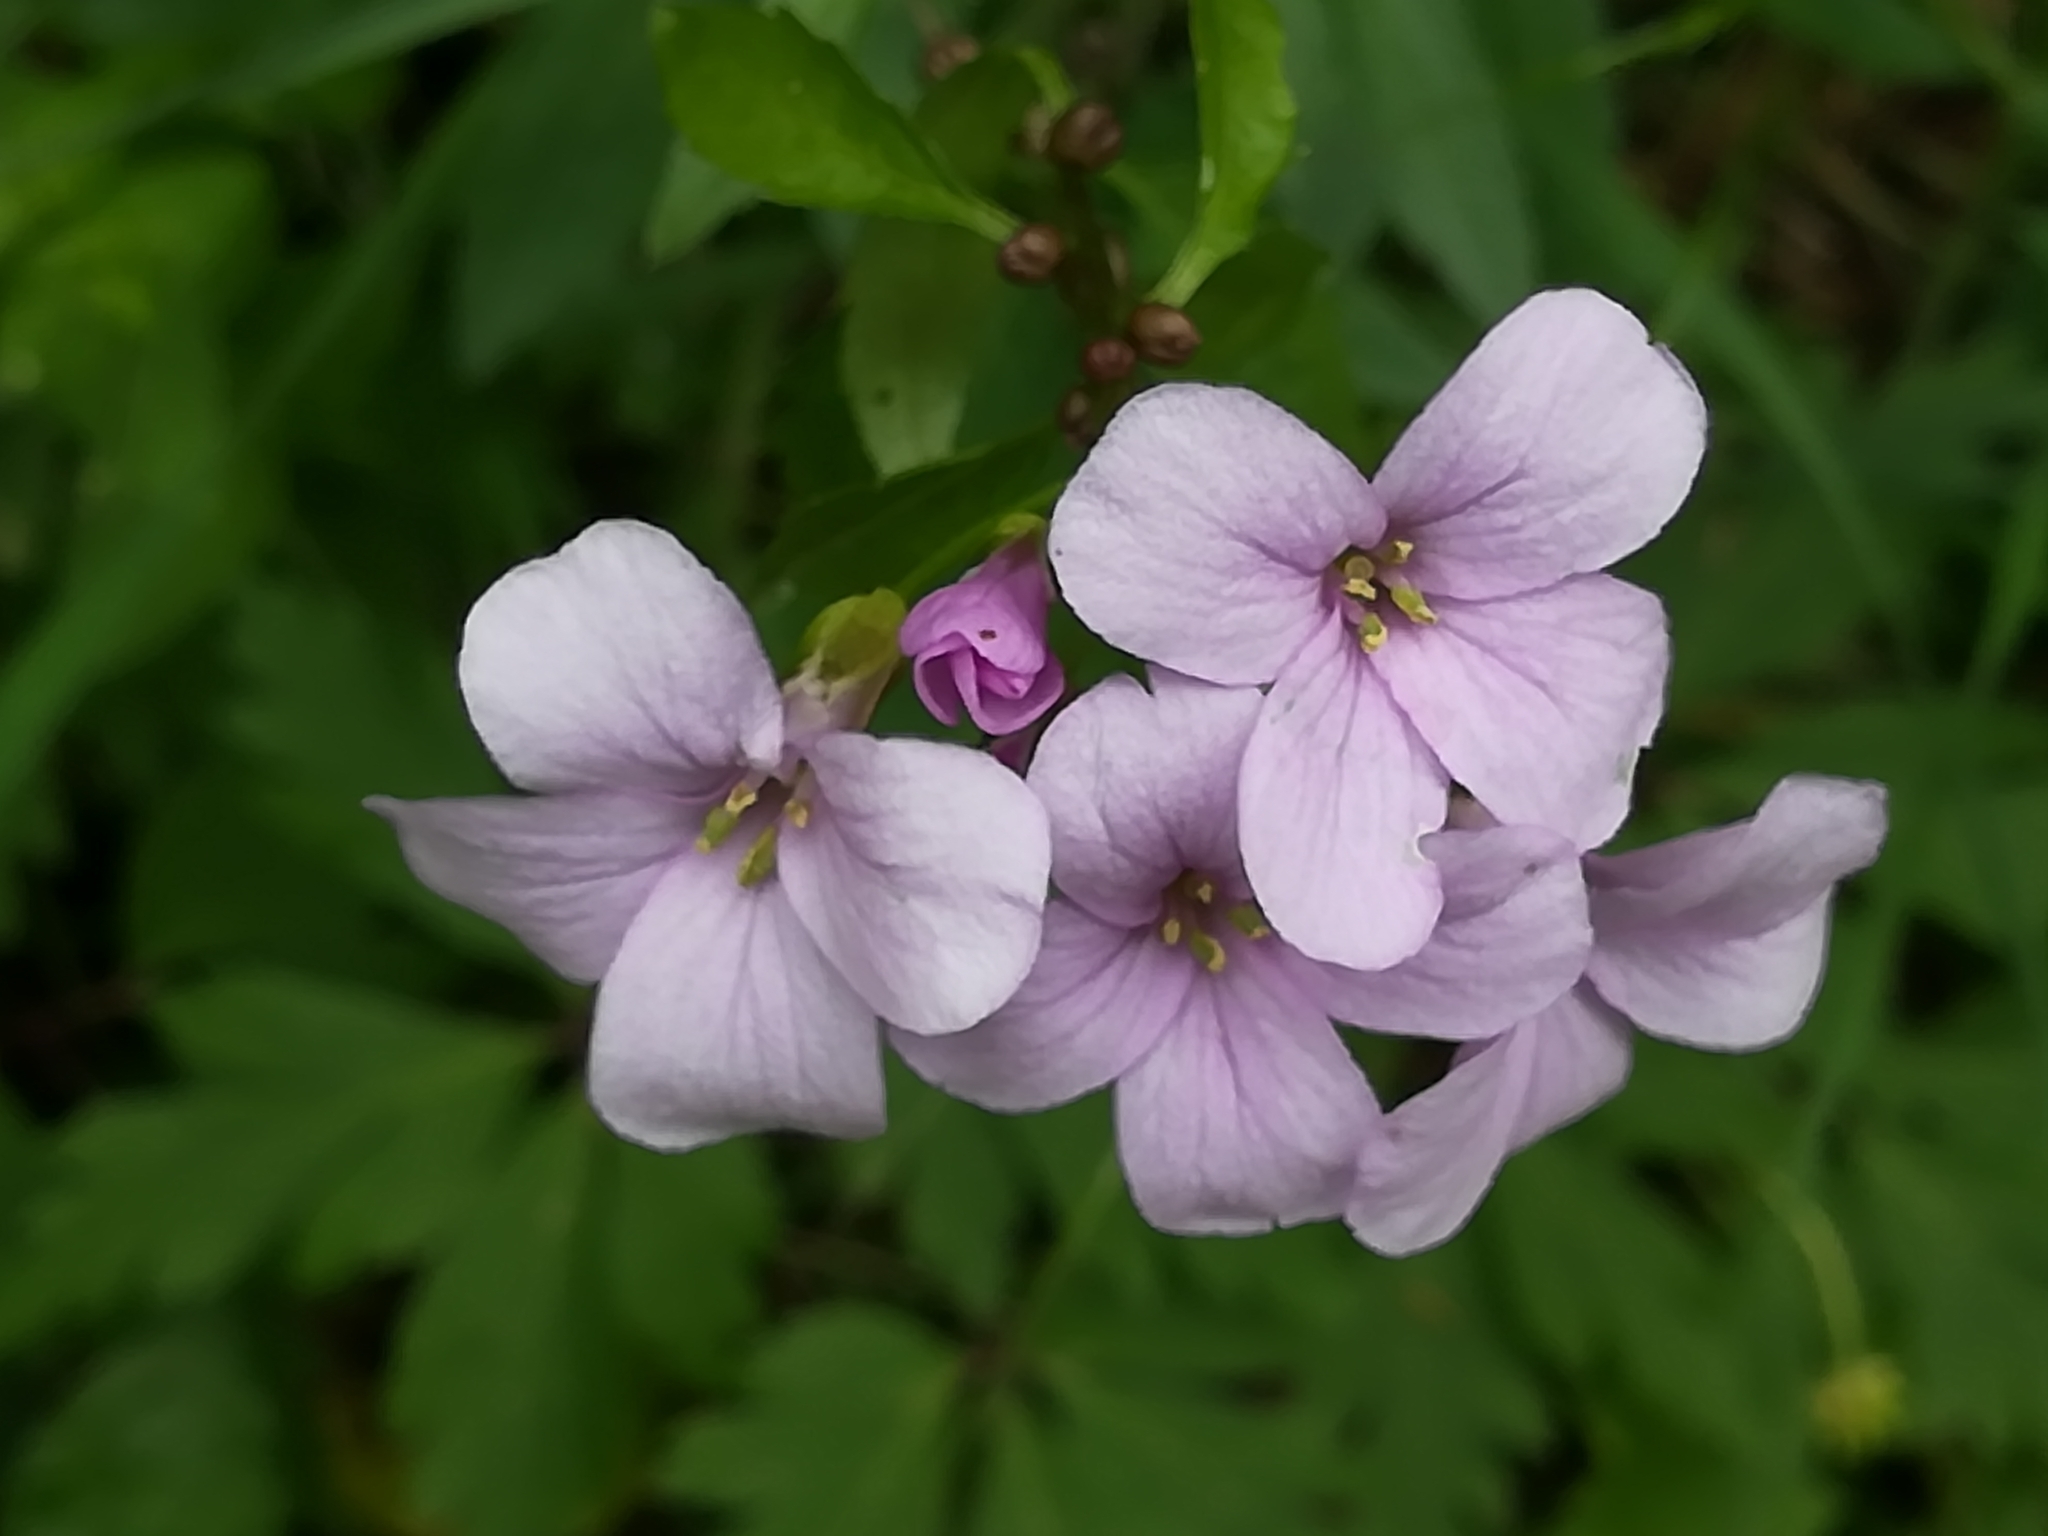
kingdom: Plantae
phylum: Tracheophyta
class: Magnoliopsida
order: Brassicales
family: Brassicaceae
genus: Cardamine
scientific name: Cardamine bulbifera
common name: Coralroot bittercress
